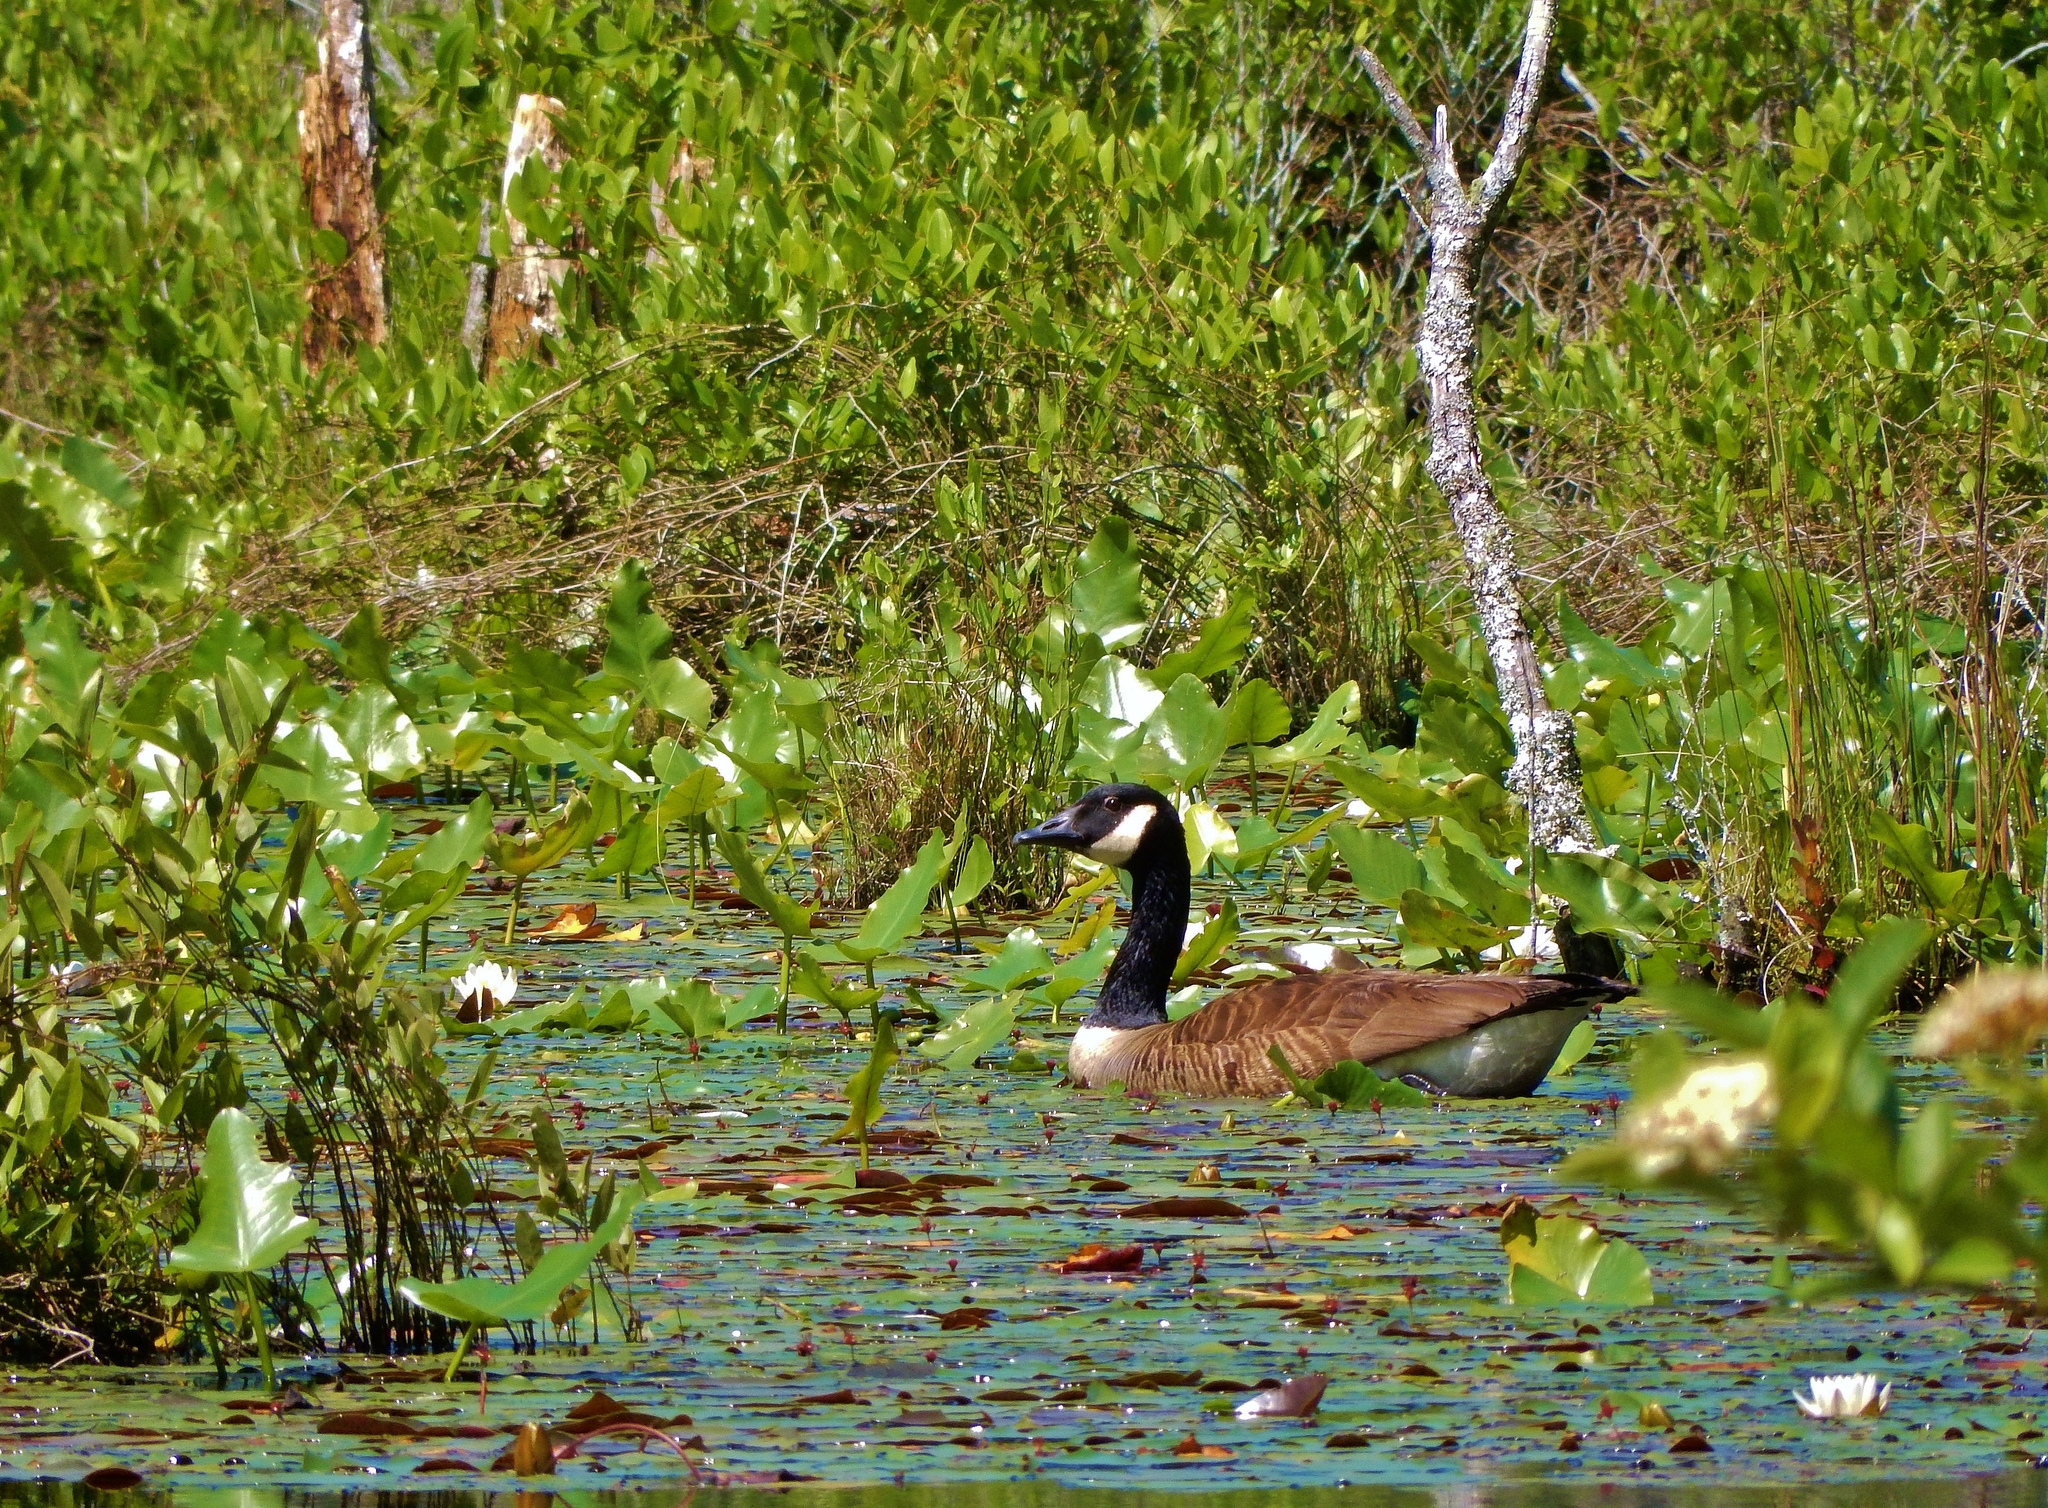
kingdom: Animalia
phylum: Chordata
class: Aves
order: Anseriformes
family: Anatidae
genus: Branta
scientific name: Branta canadensis
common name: Canada goose
